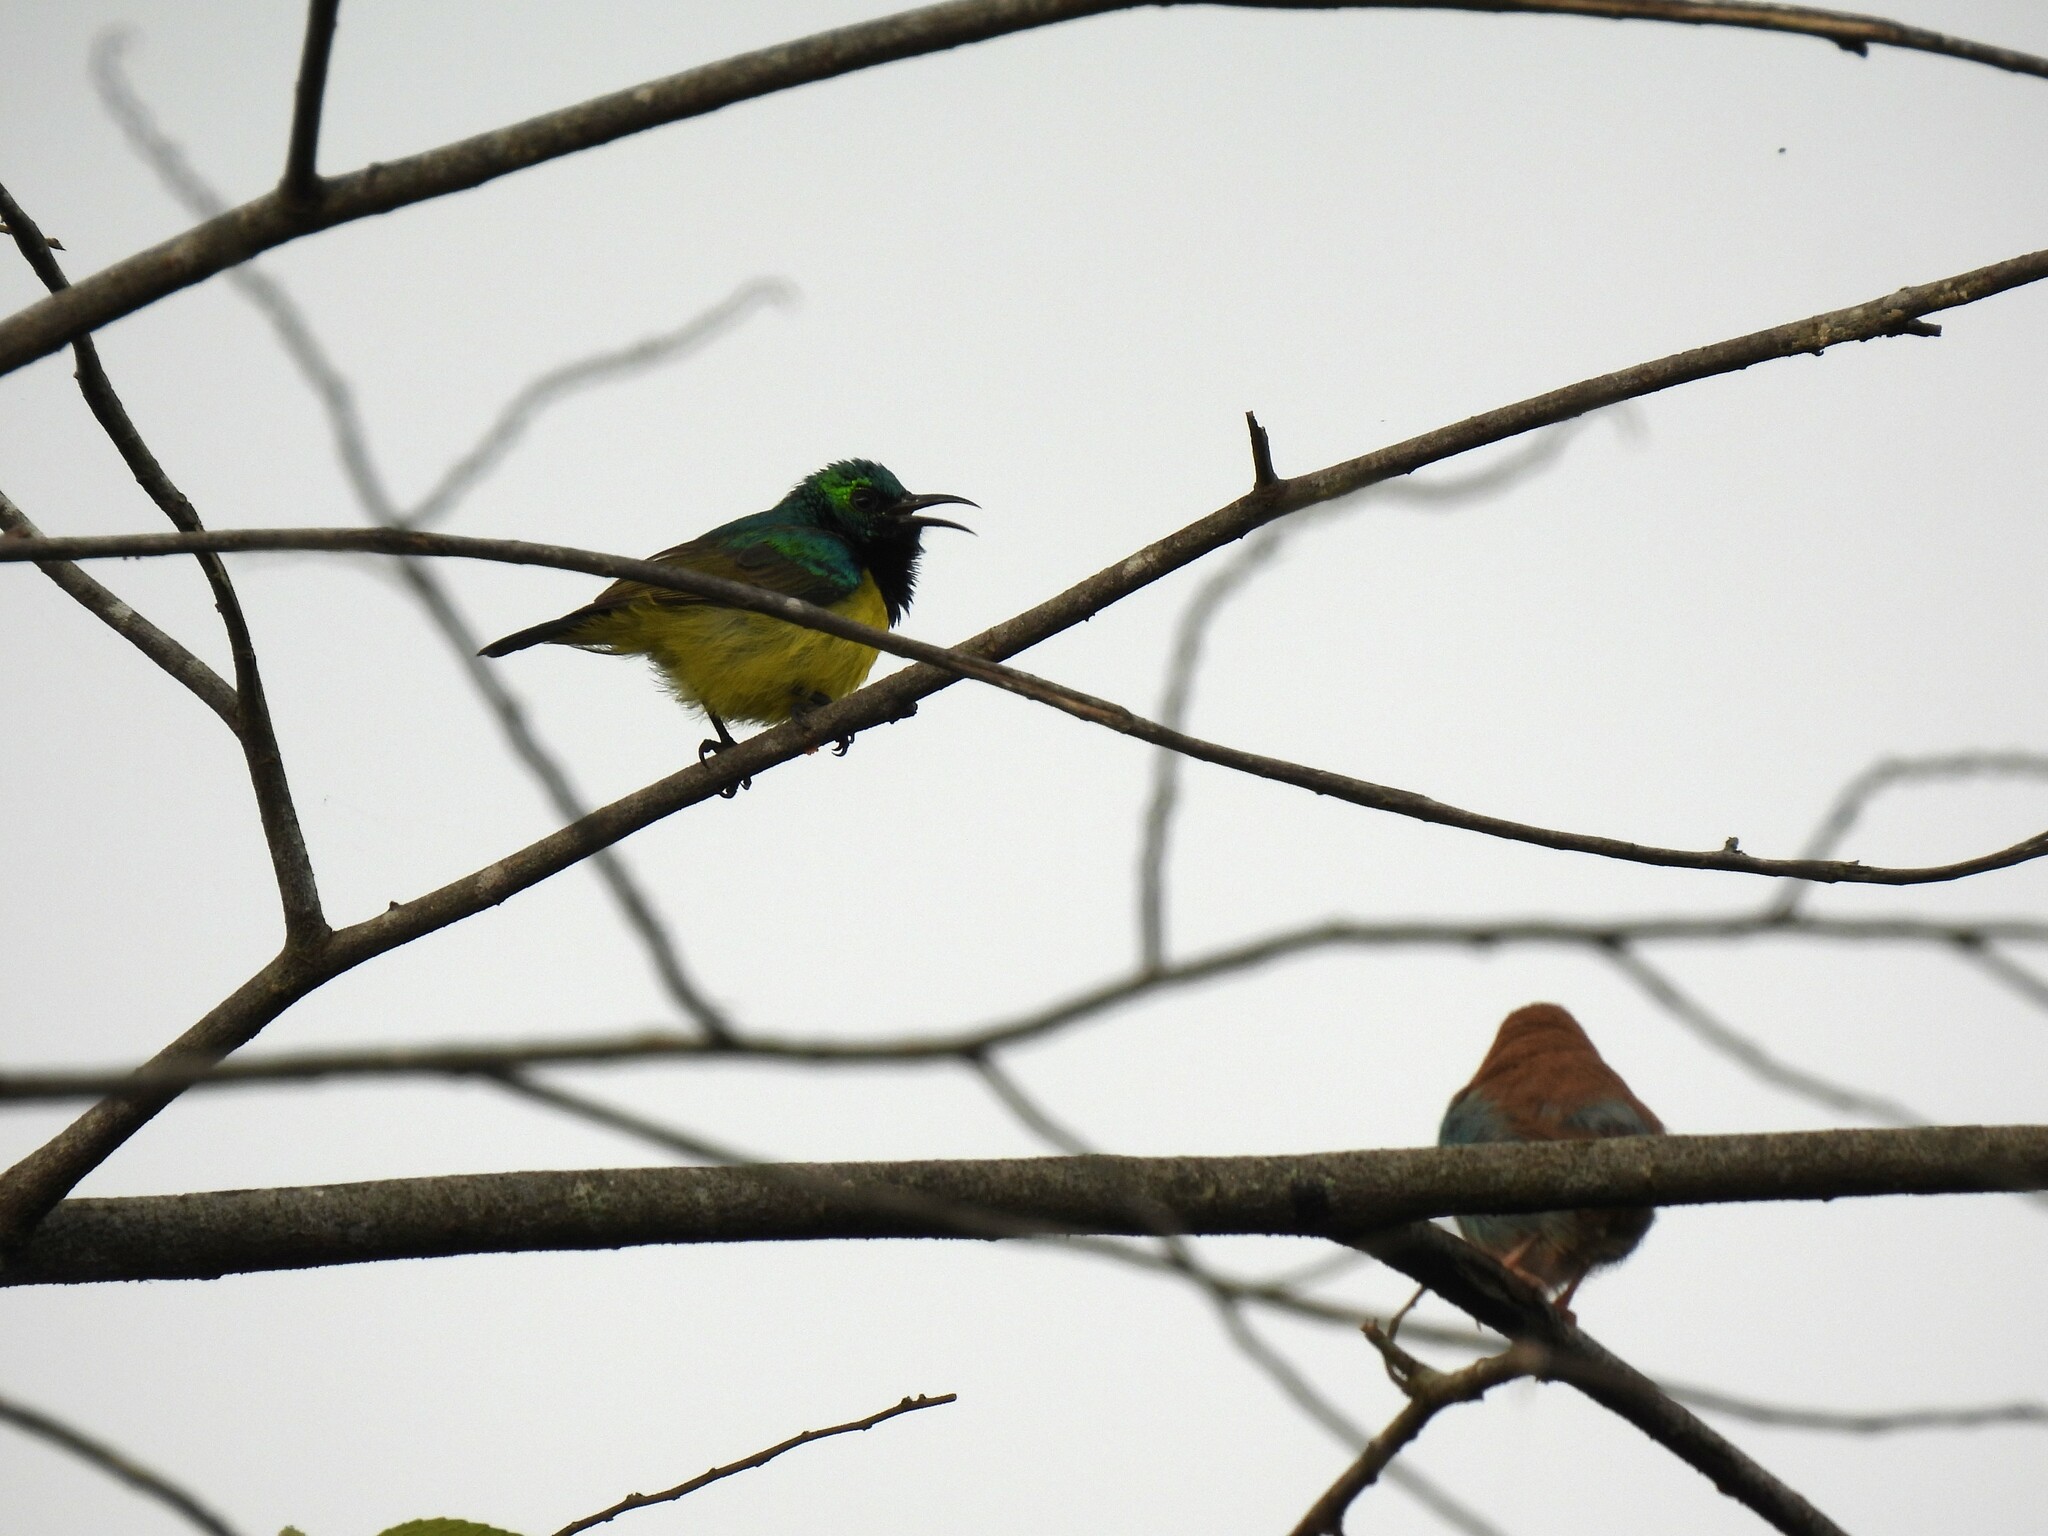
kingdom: Animalia
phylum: Chordata
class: Aves
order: Passeriformes
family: Nectariniidae
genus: Hedydipna
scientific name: Hedydipna collaris
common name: Collared sunbird
